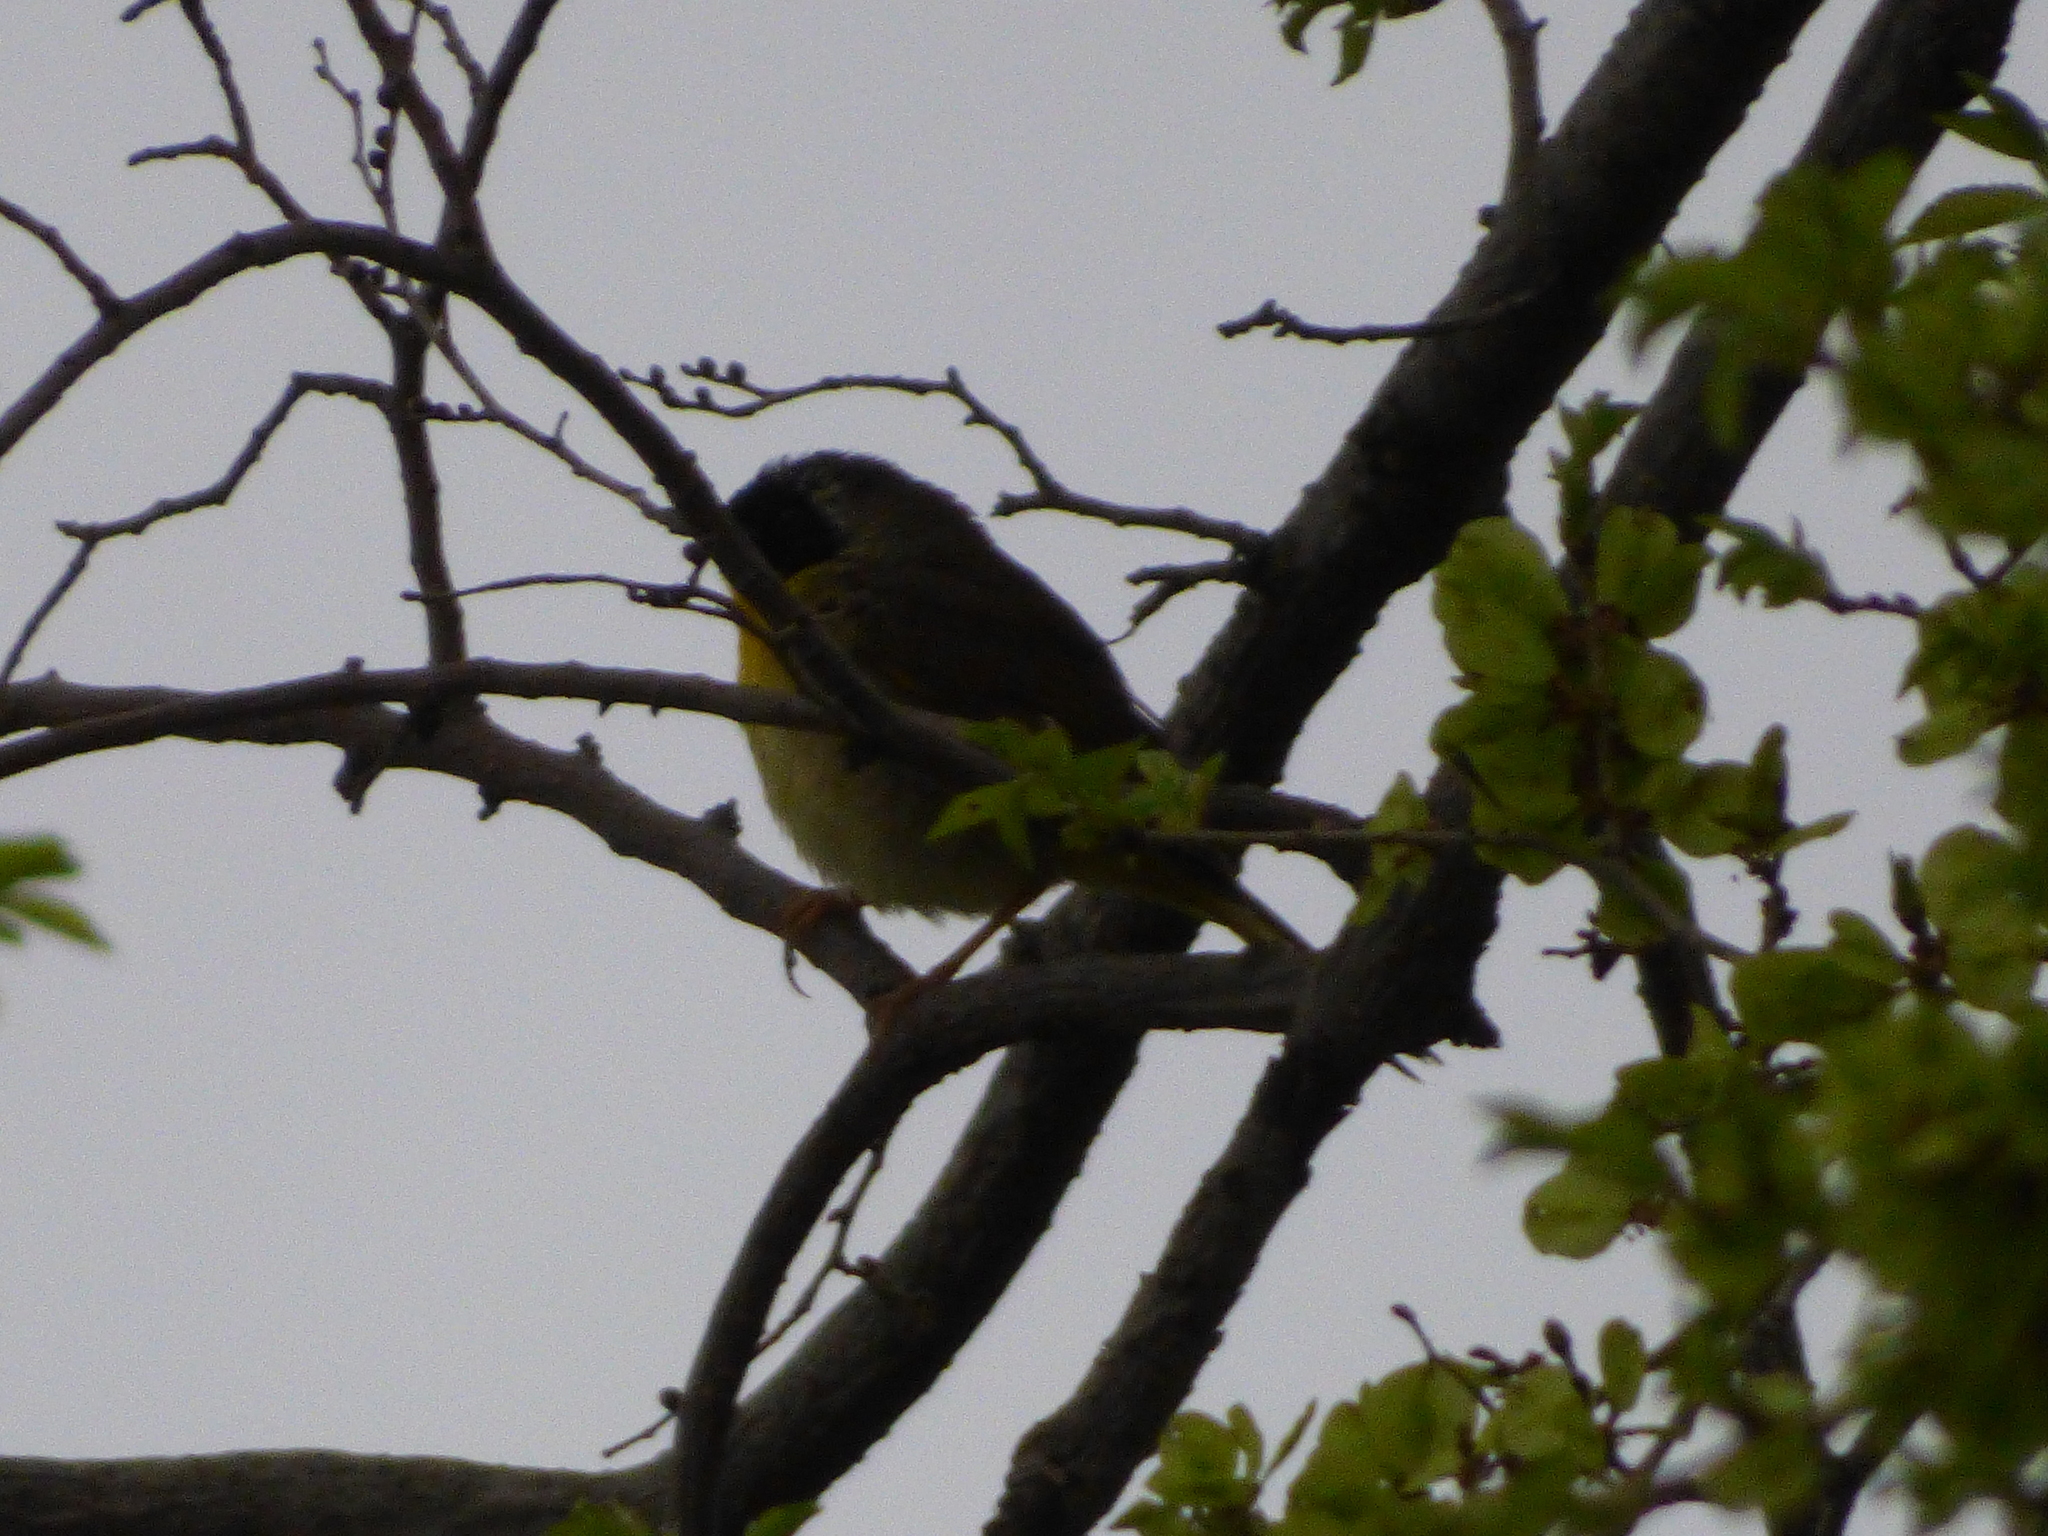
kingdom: Animalia
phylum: Chordata
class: Aves
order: Passeriformes
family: Parulidae
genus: Geothlypis
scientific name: Geothlypis trichas
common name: Common yellowthroat
